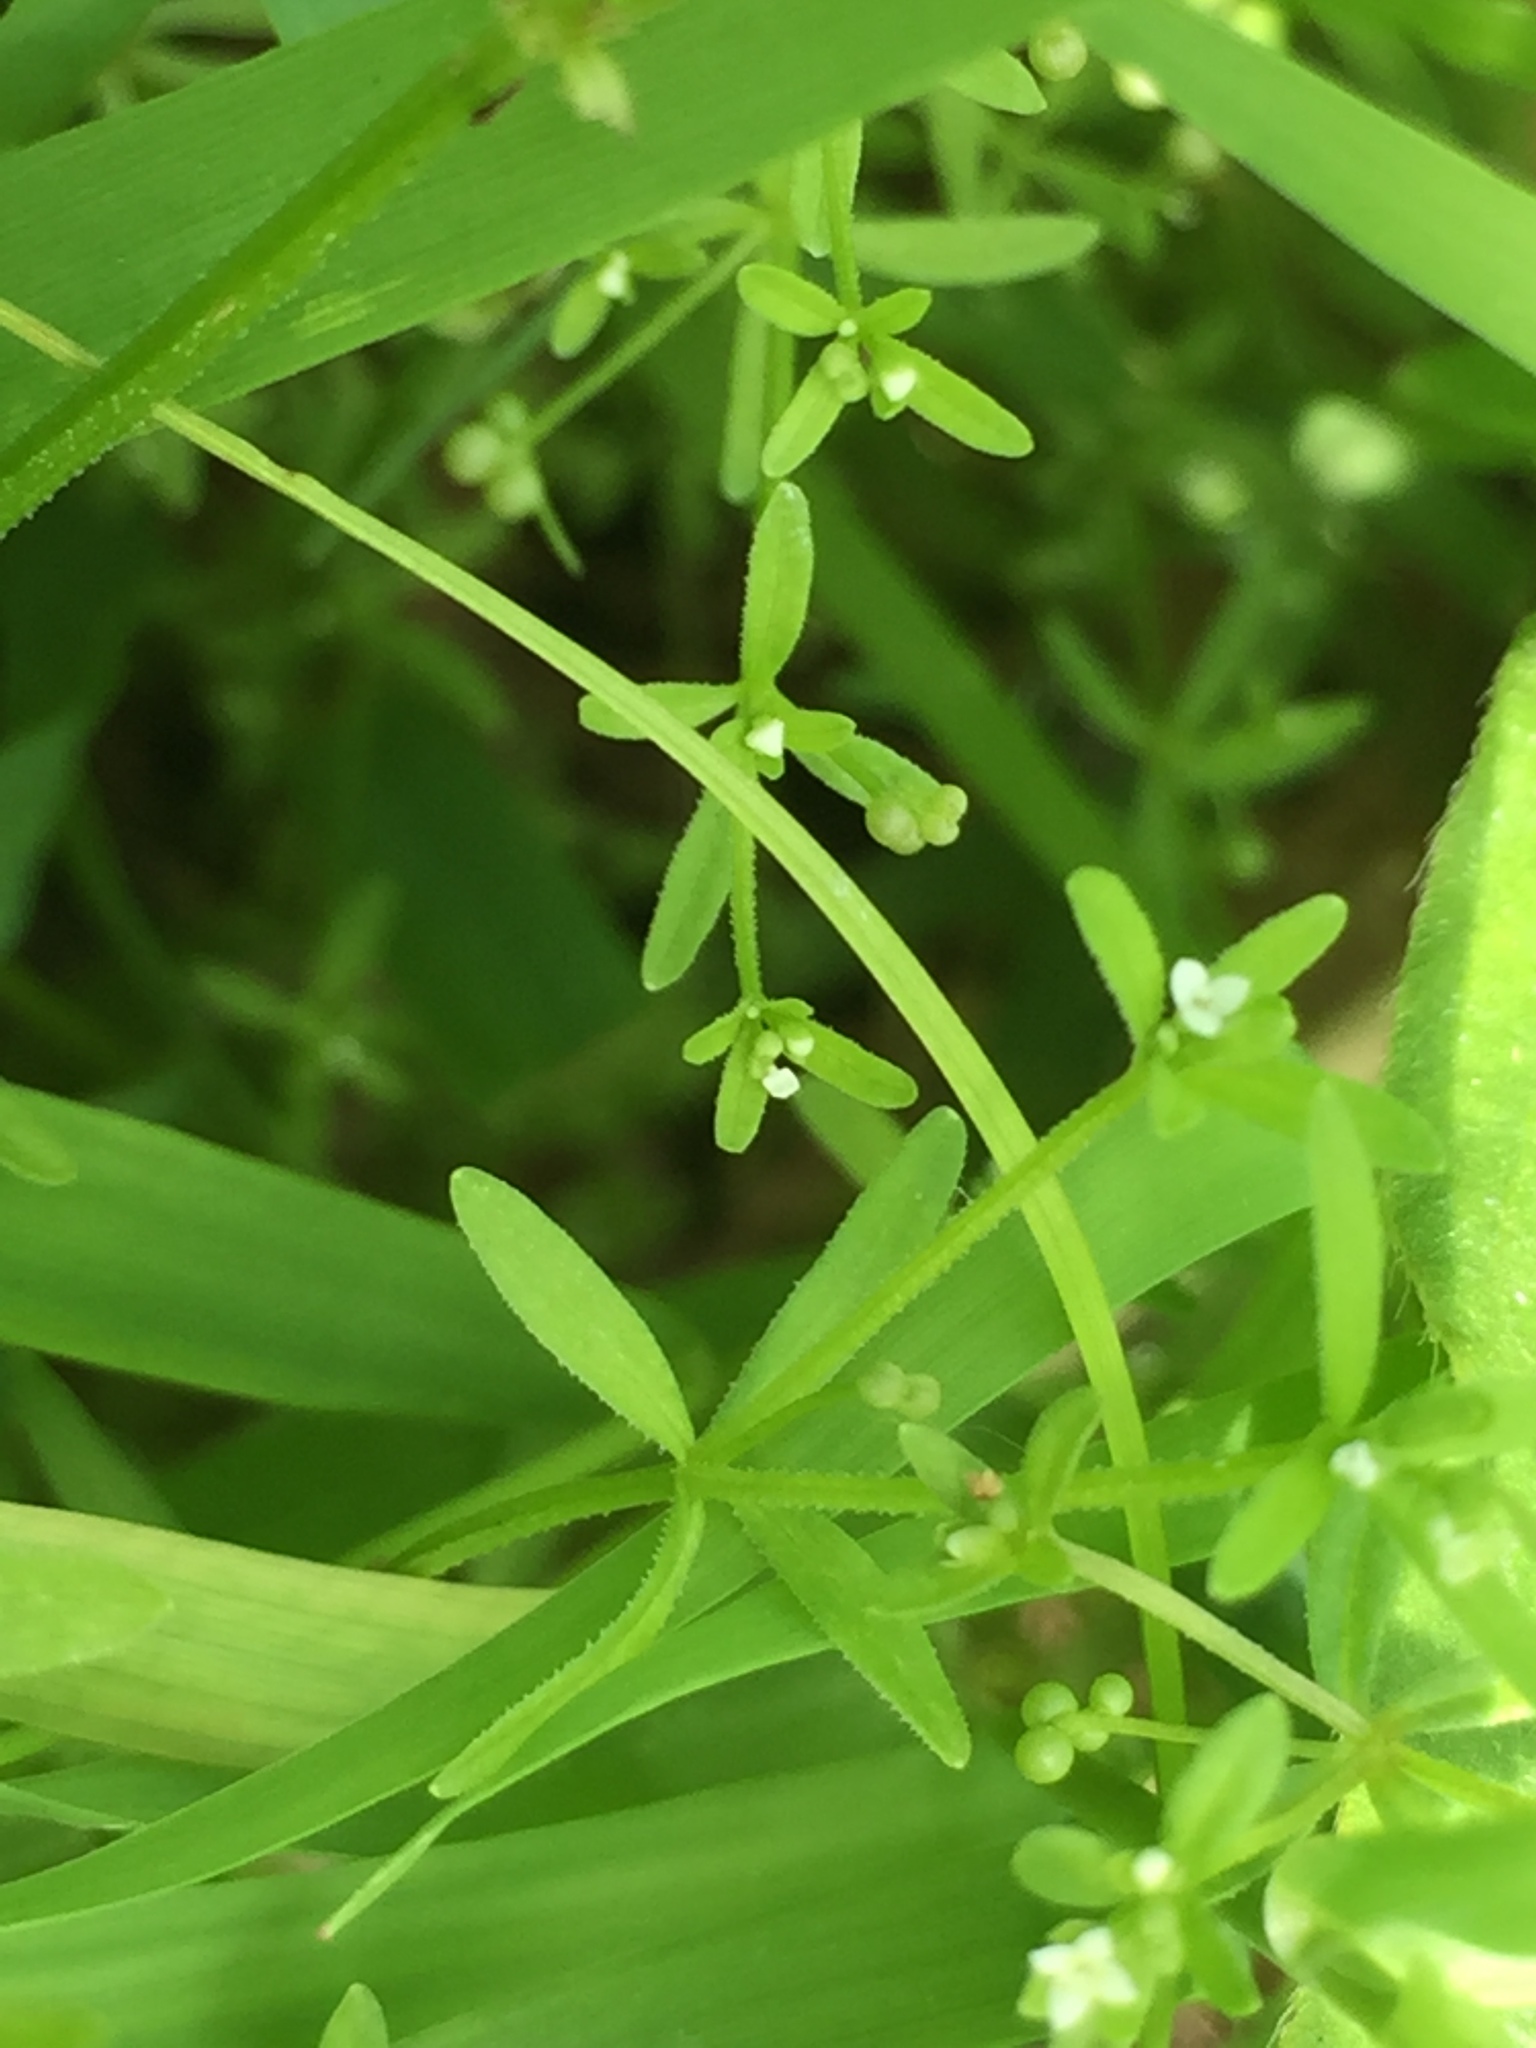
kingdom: Plantae
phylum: Tracheophyta
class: Magnoliopsida
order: Gentianales
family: Rubiaceae
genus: Galium
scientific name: Galium trifidum
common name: Small bedstraw
